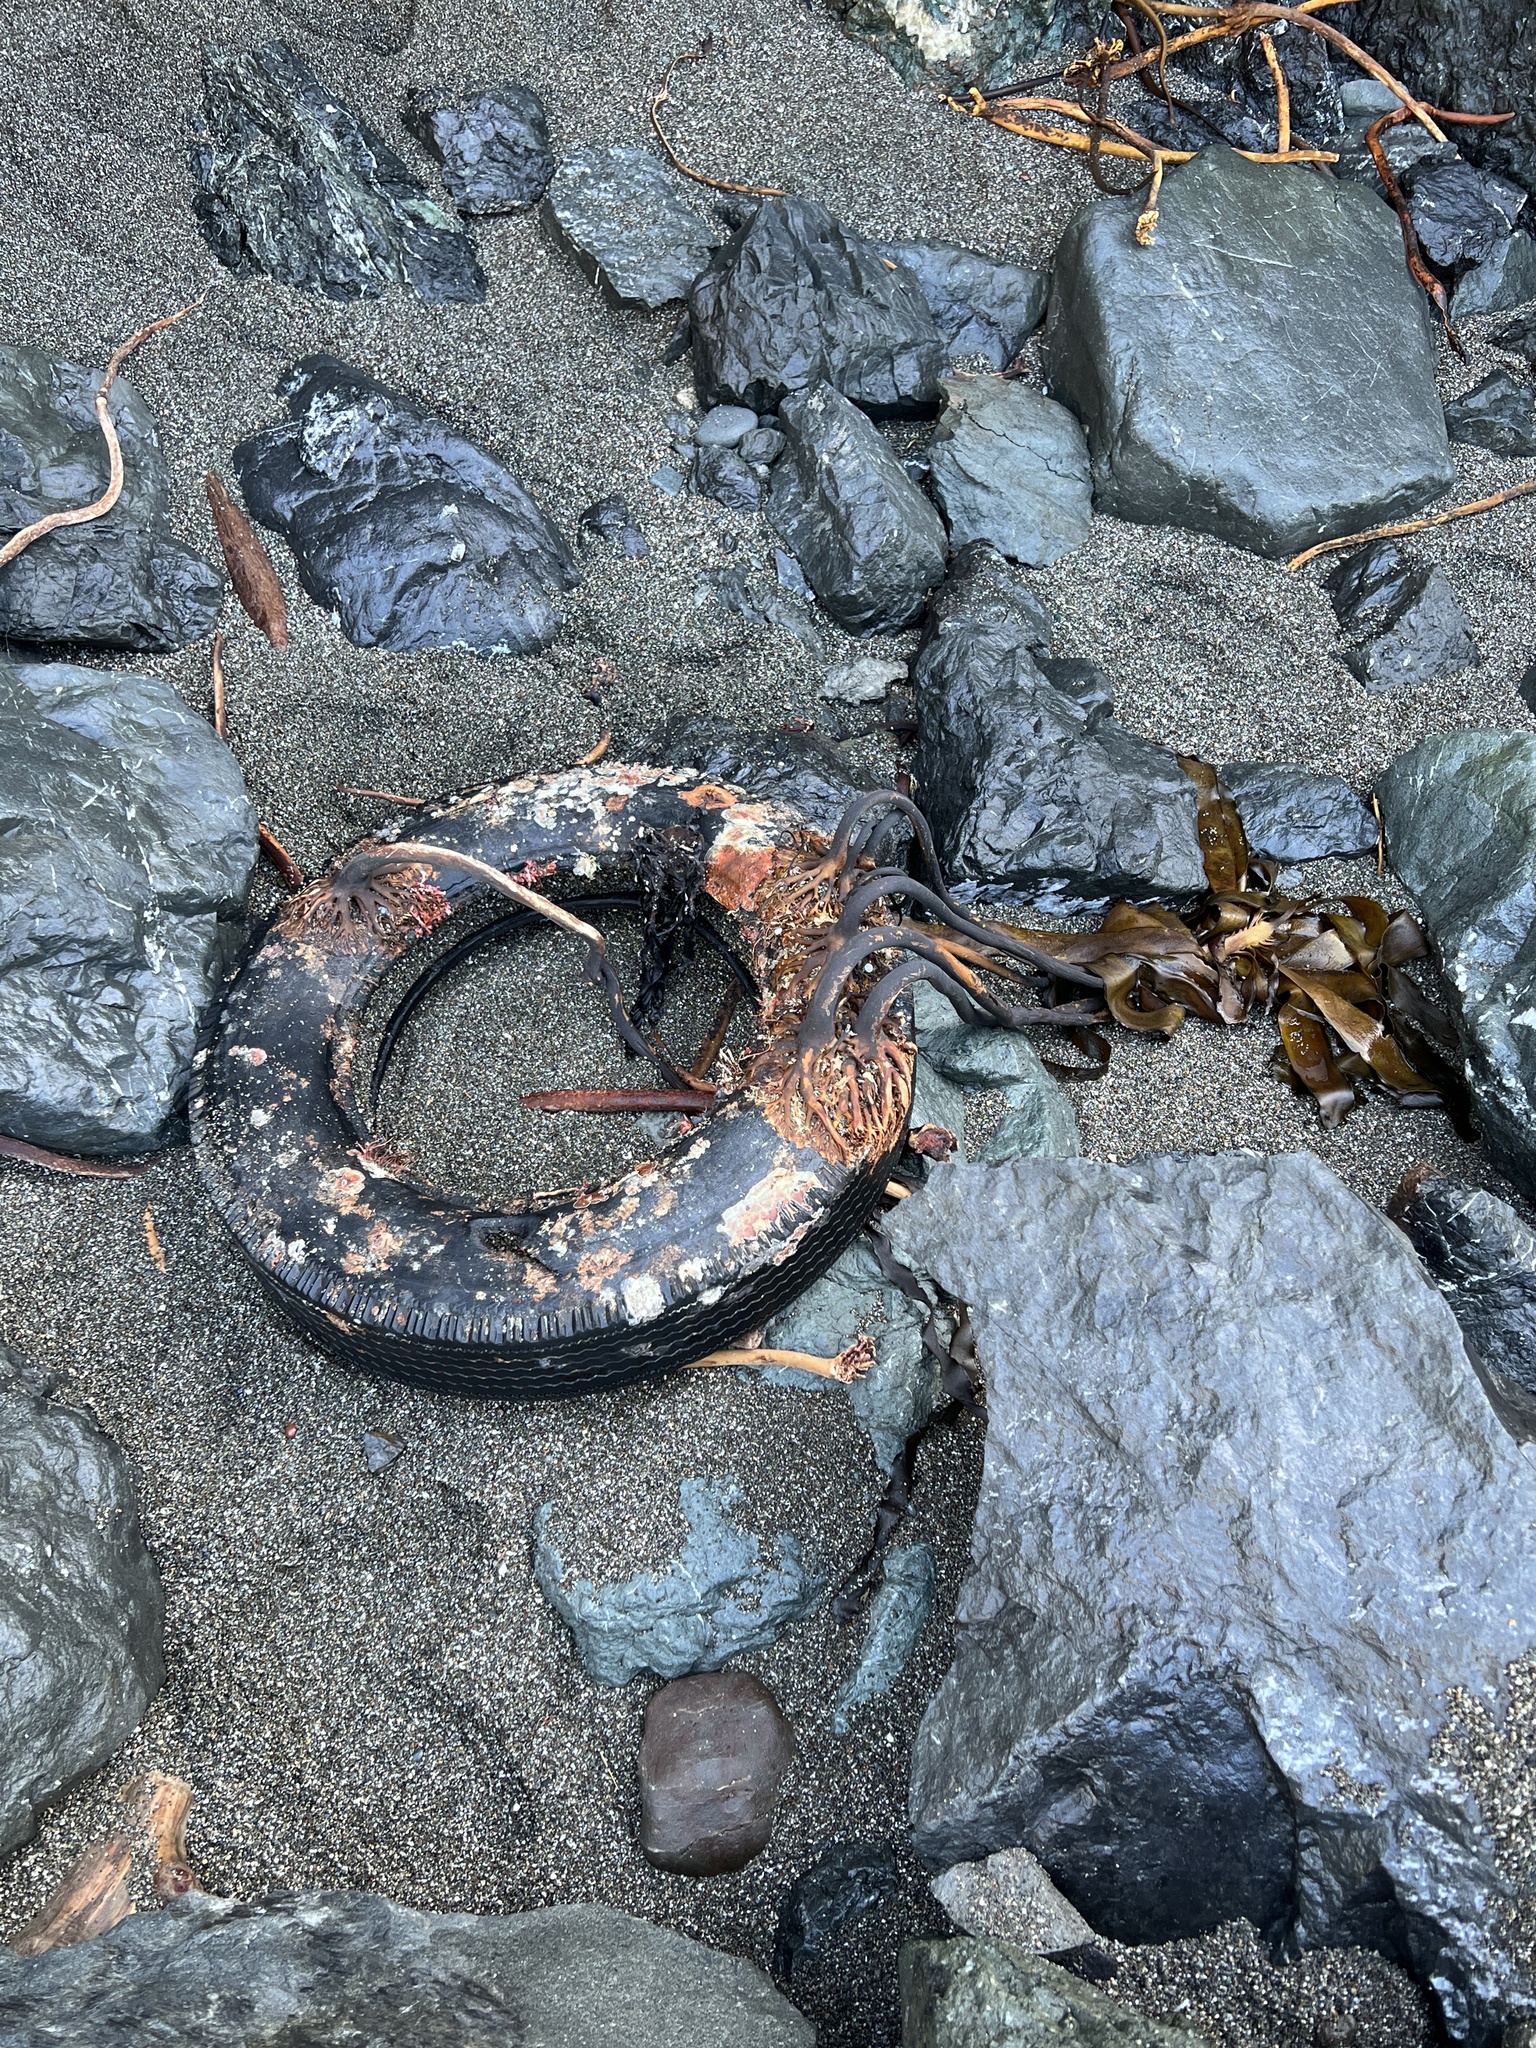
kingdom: Chromista
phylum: Ochrophyta
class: Phaeophyceae
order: Laminariales
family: Alariaceae
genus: Pterygophora
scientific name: Pterygophora californica
